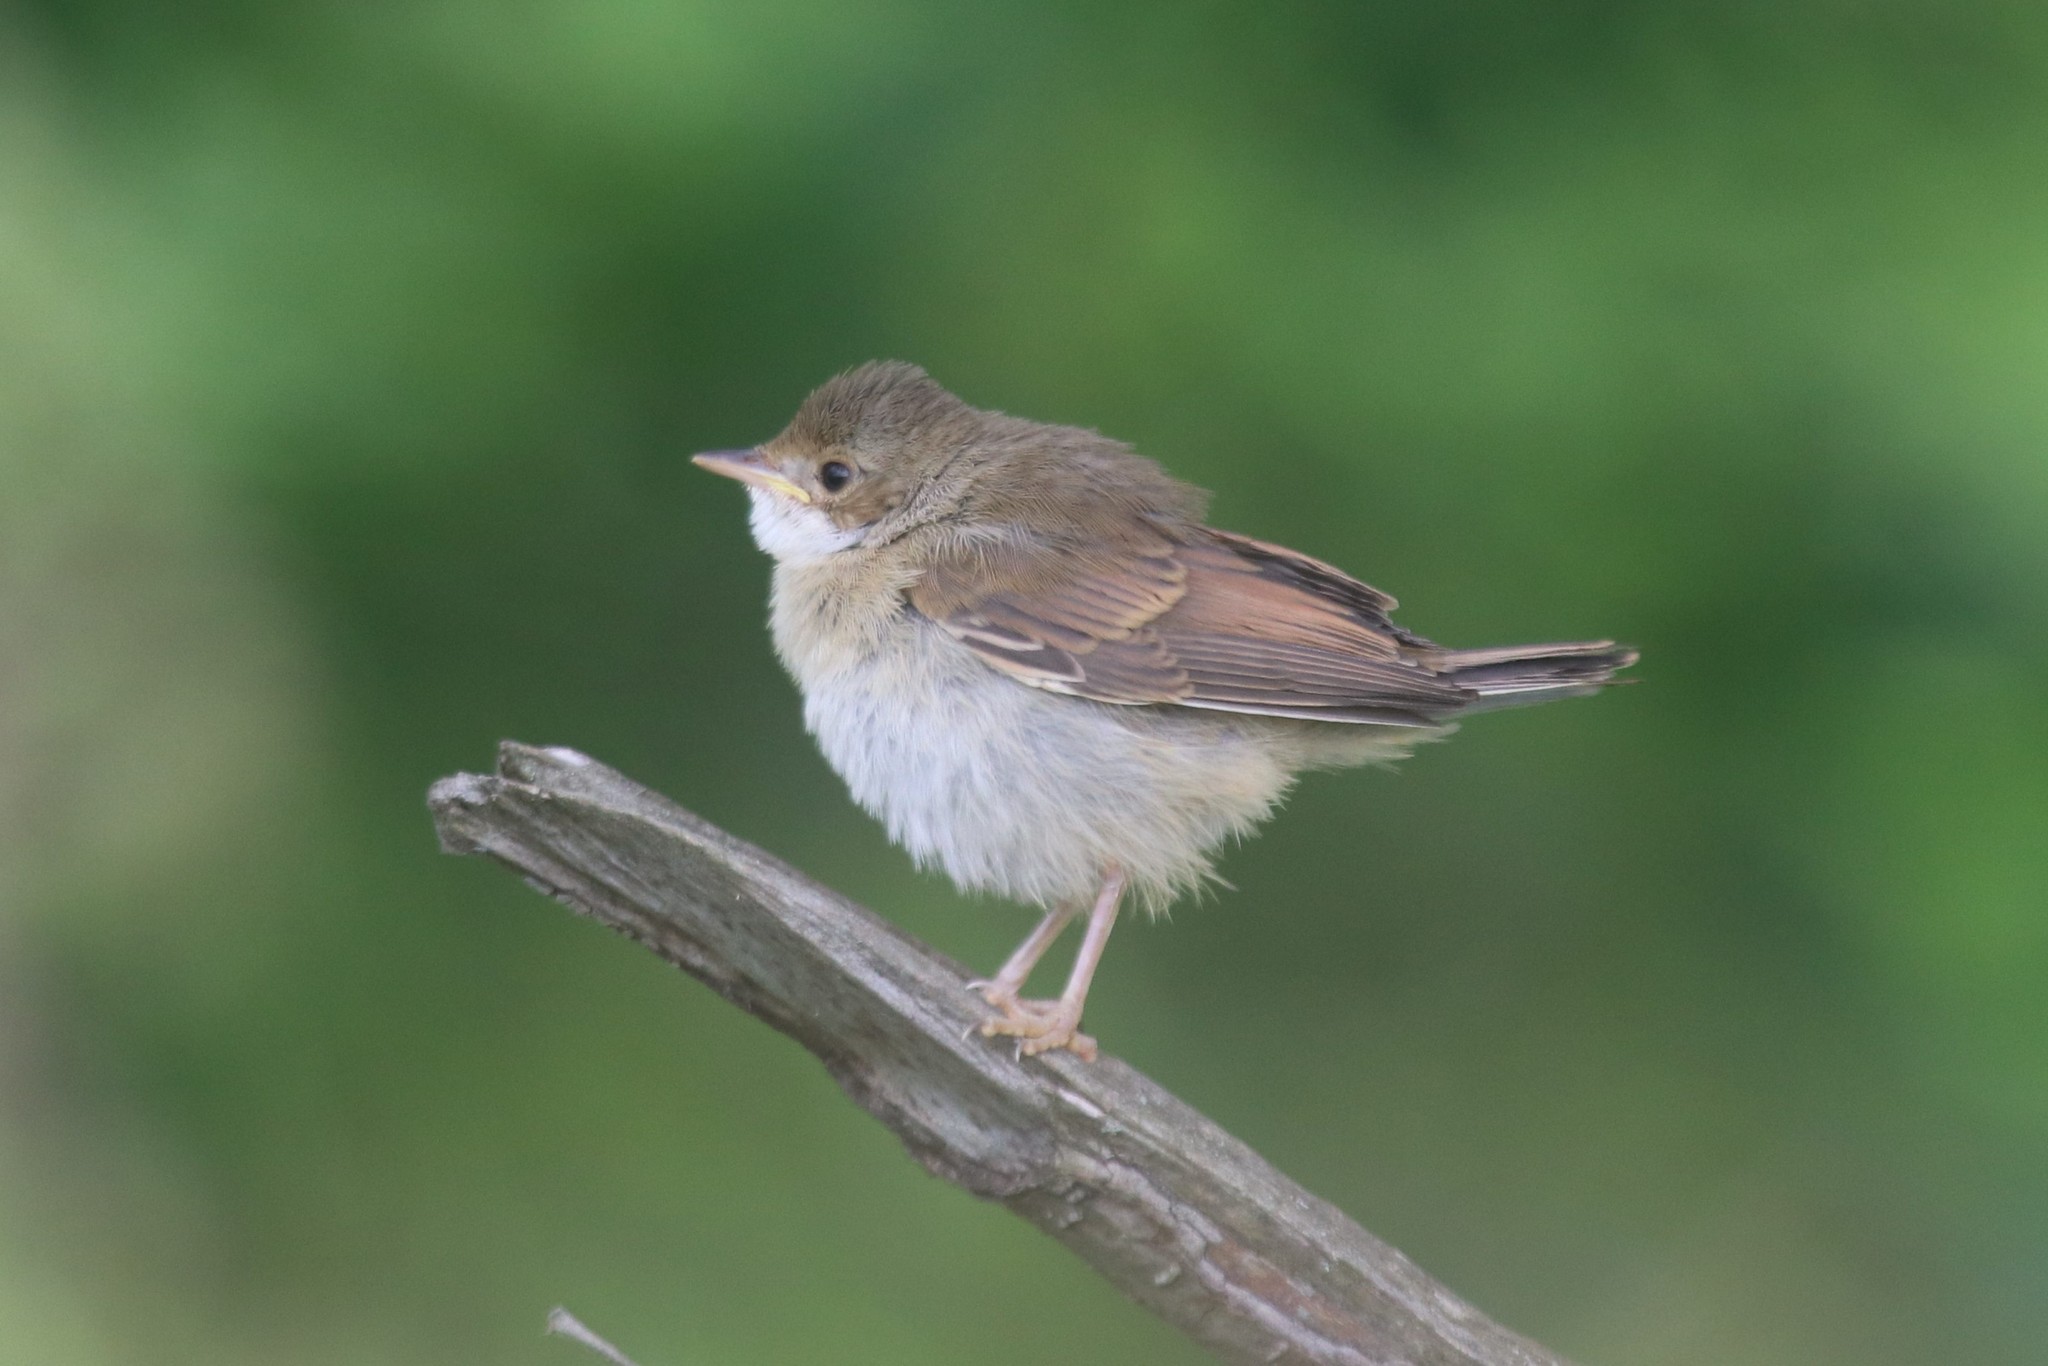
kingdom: Animalia
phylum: Chordata
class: Aves
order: Passeriformes
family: Sylviidae
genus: Sylvia
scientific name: Sylvia communis
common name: Common whitethroat
